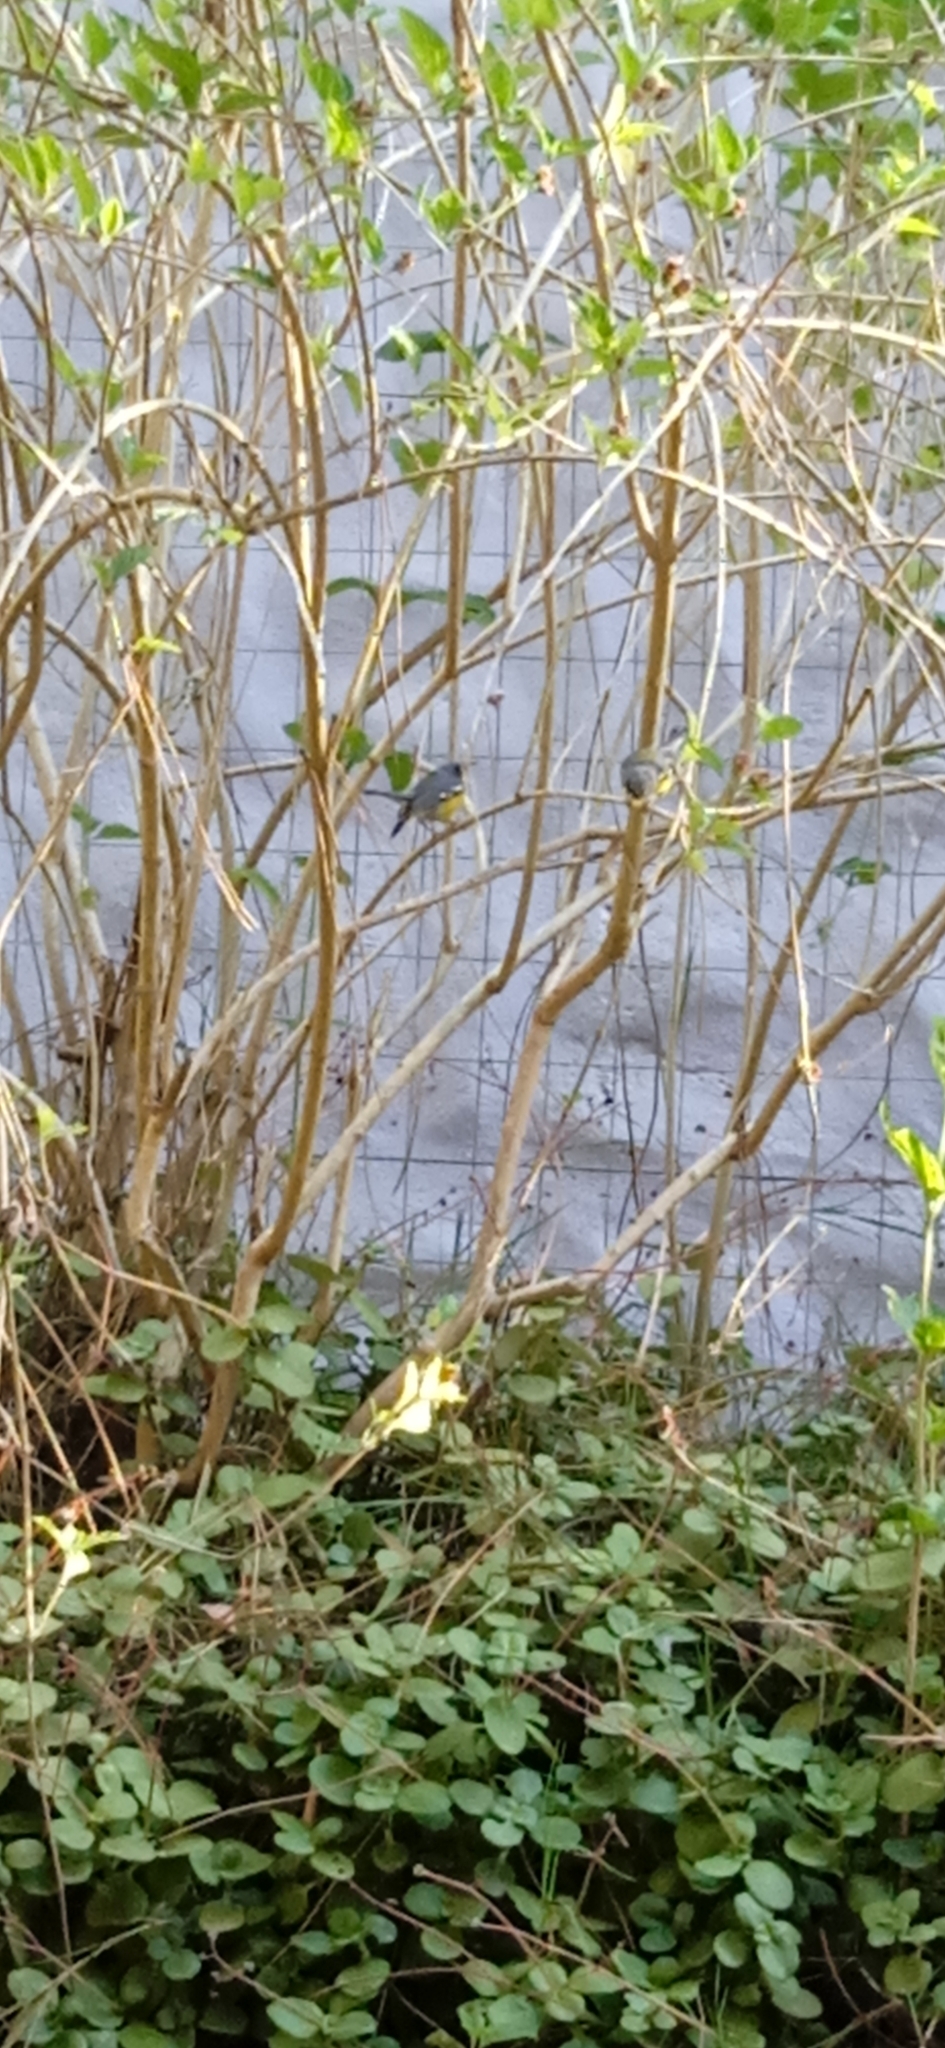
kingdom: Animalia
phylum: Chordata
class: Aves
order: Passeriformes
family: Parulidae
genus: Setophaga
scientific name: Setophaga pitiayumi
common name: Tropical parula
